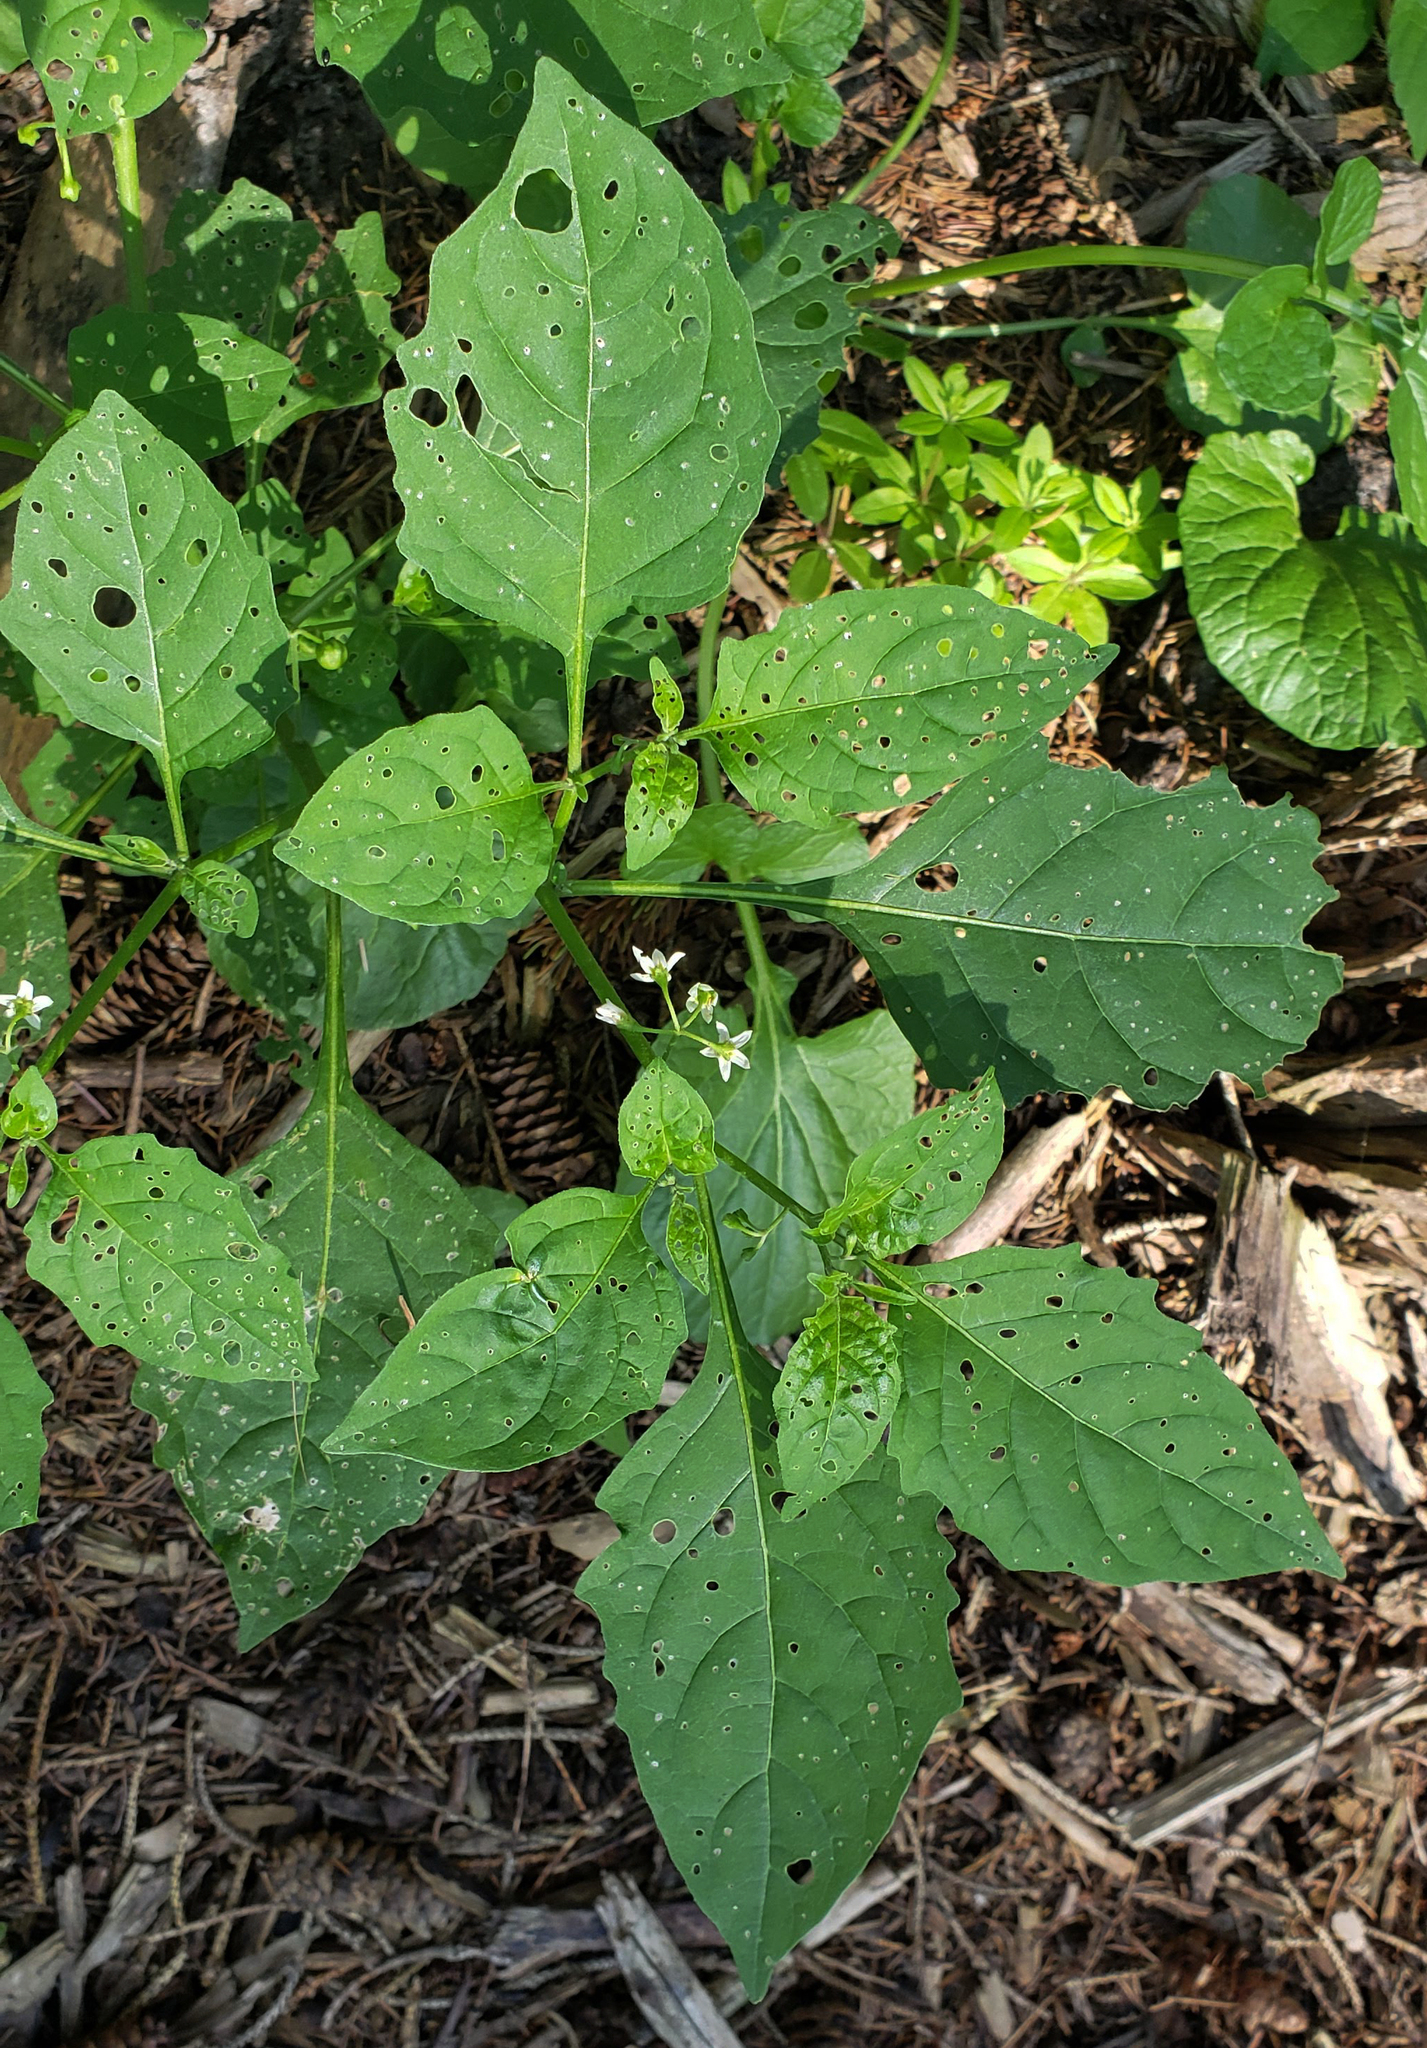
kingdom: Plantae
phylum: Tracheophyta
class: Magnoliopsida
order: Solanales
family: Solanaceae
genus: Solanum
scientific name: Solanum emulans
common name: Eastern black nightshade
